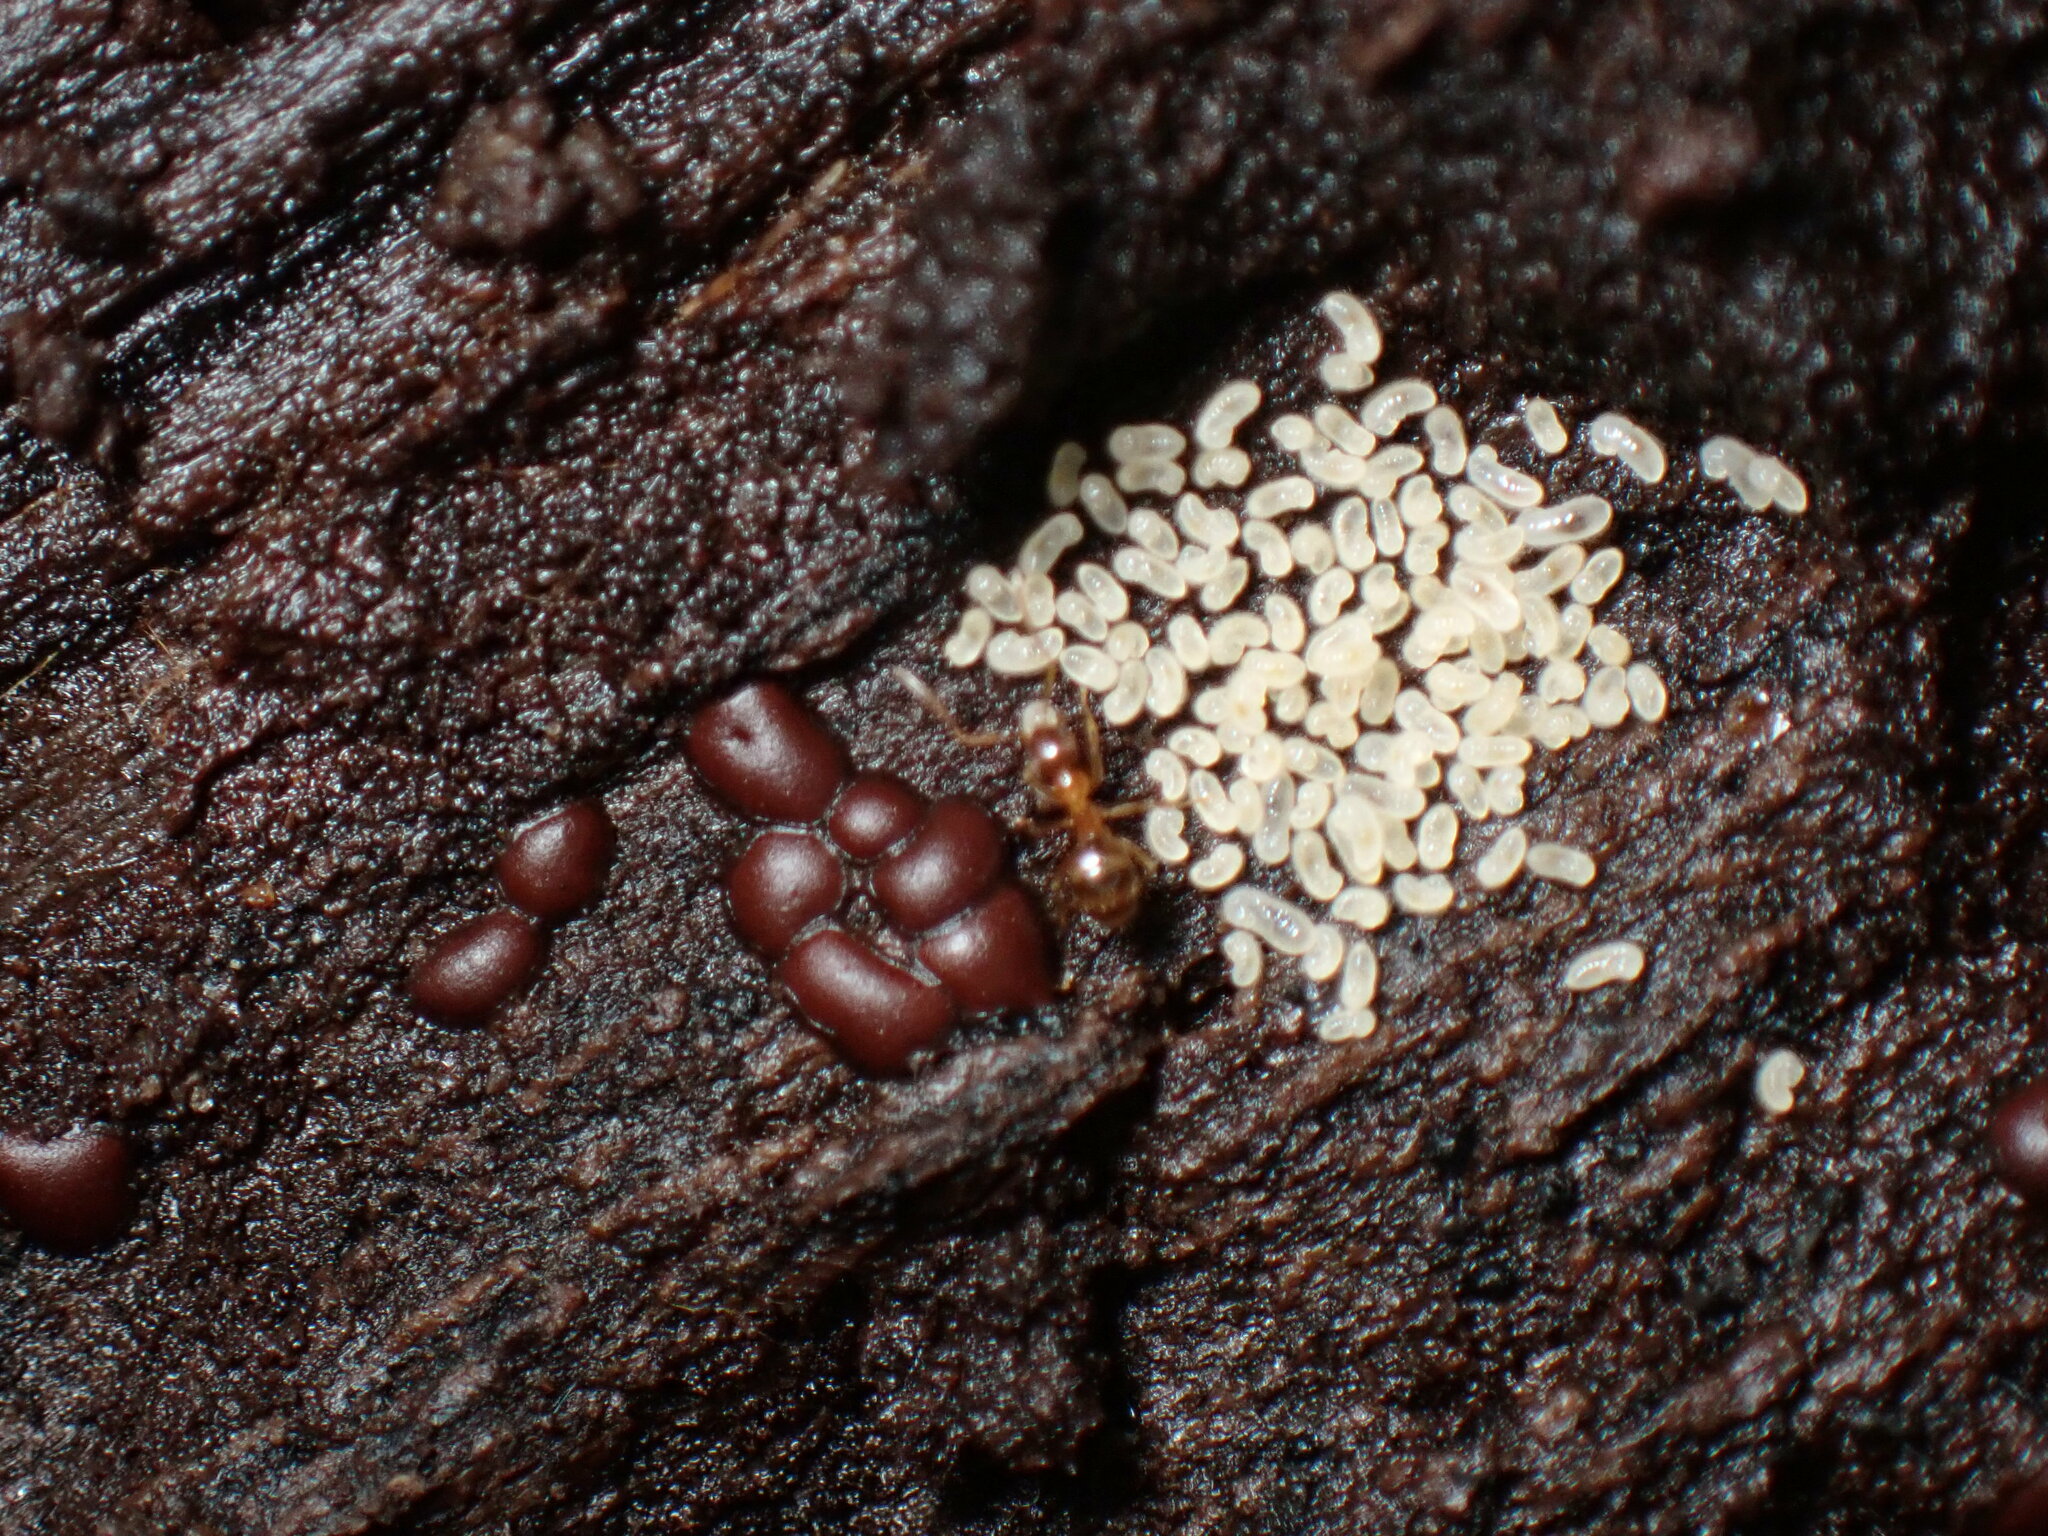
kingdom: Protozoa
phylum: Mycetozoa
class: Myxomycetes
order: Trichiales
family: Trichiaceae
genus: Perichaena
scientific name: Perichaena depressa
